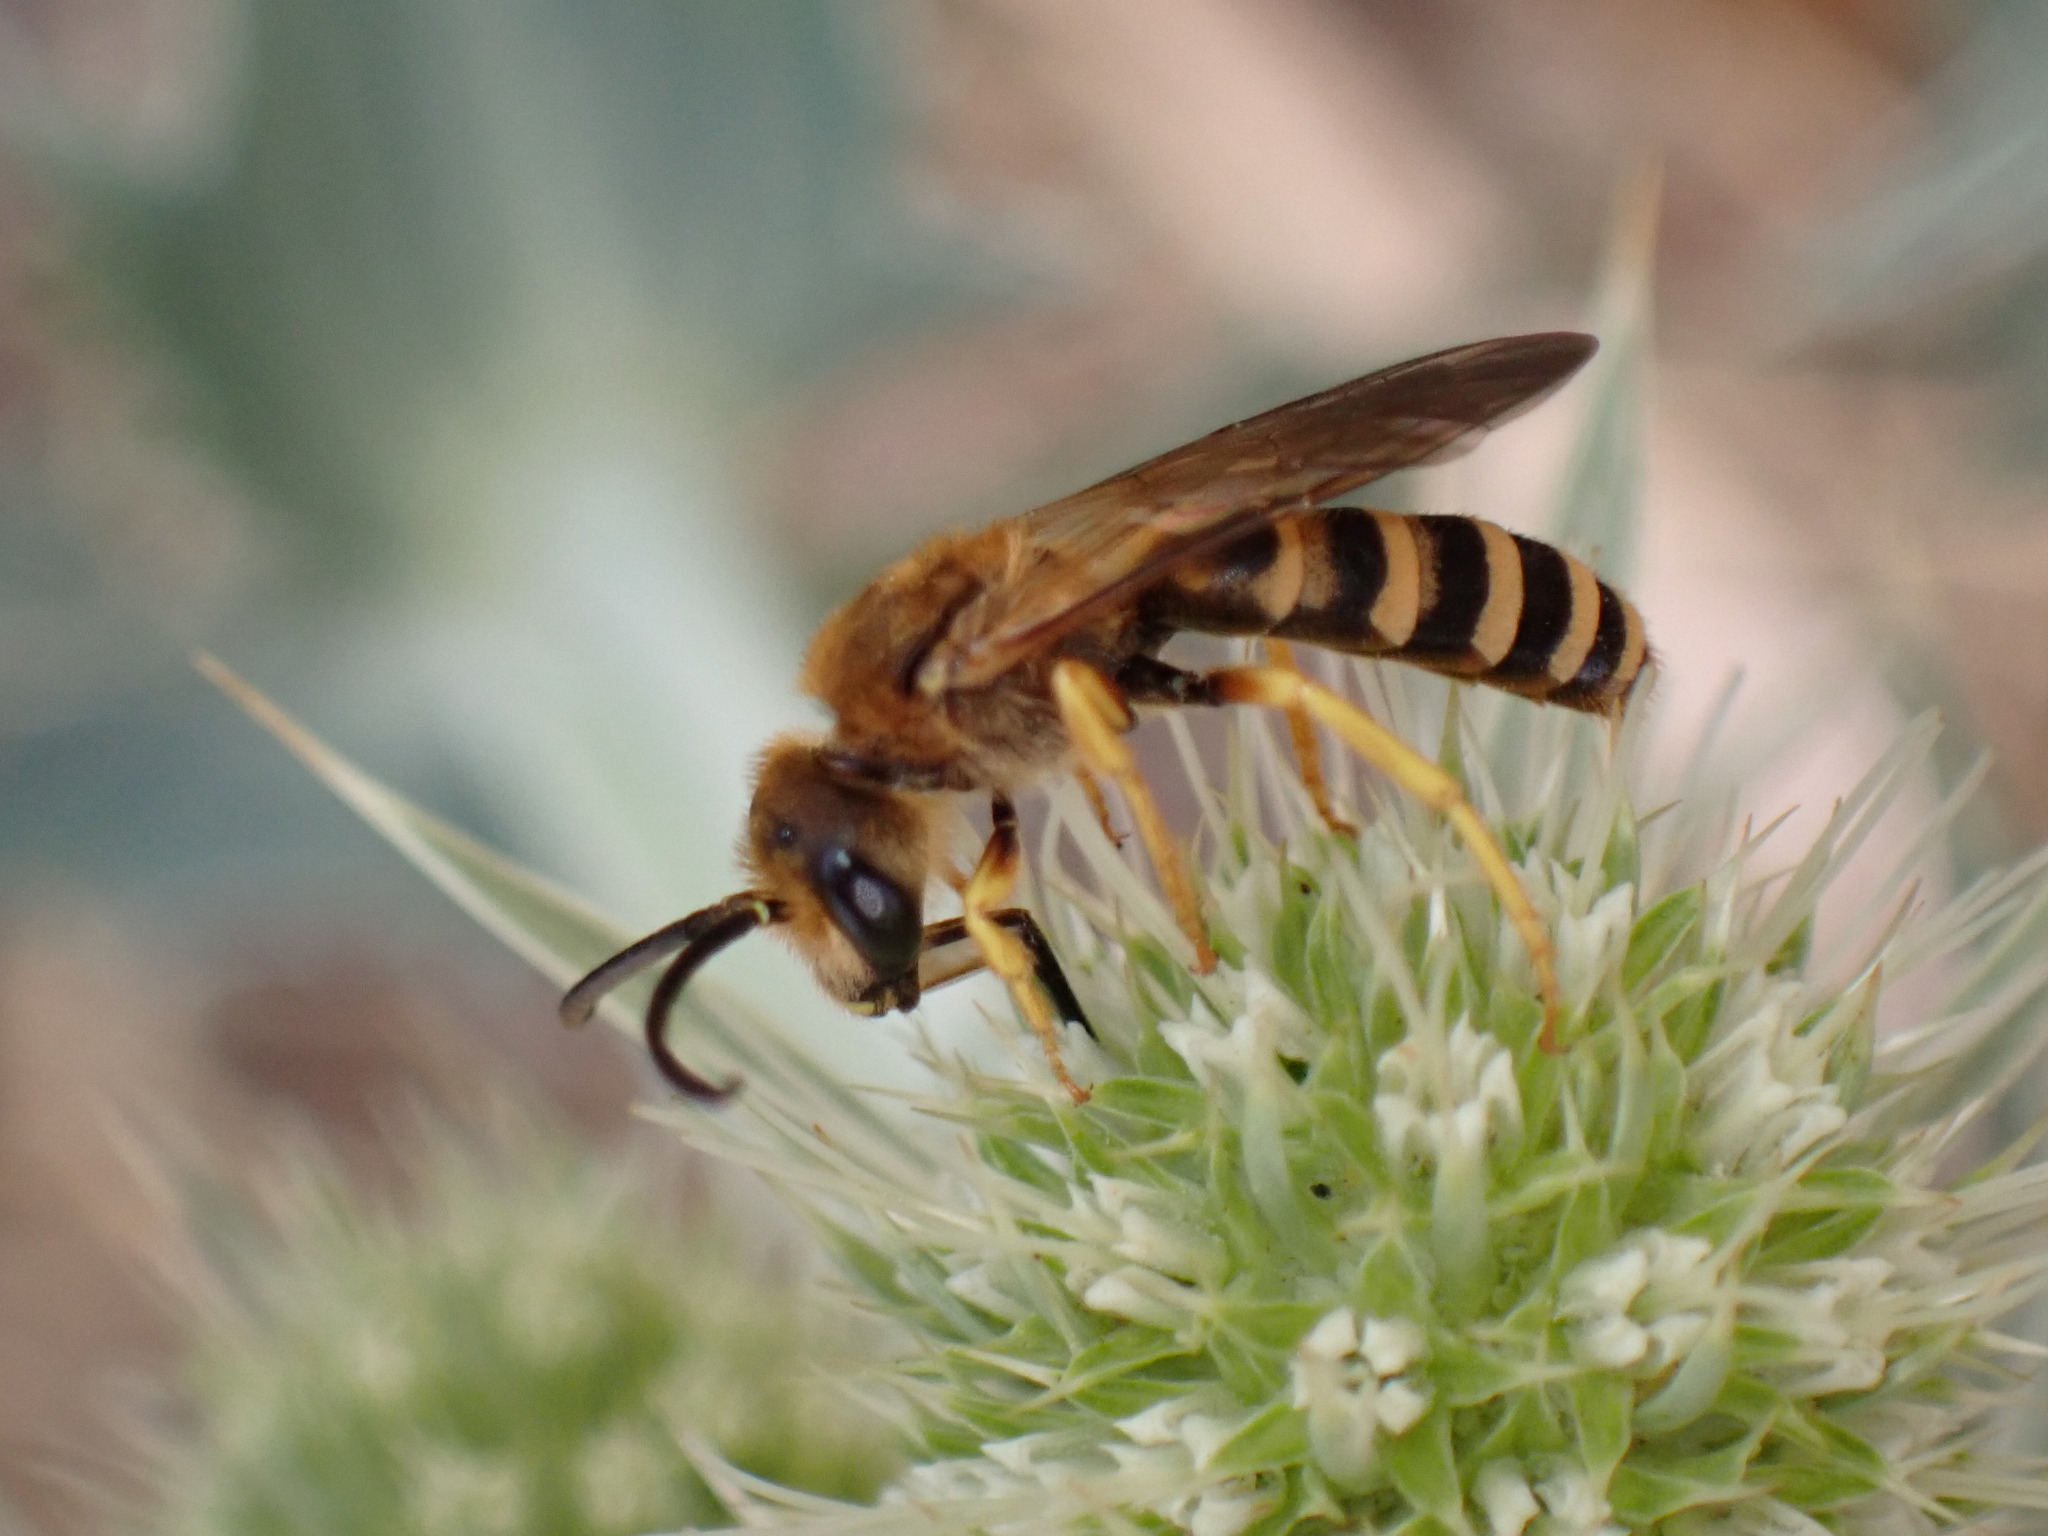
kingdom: Animalia
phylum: Arthropoda
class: Insecta
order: Hymenoptera
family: Halictidae
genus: Halictus
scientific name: Halictus scabiosae
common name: Great banded furrow bee
